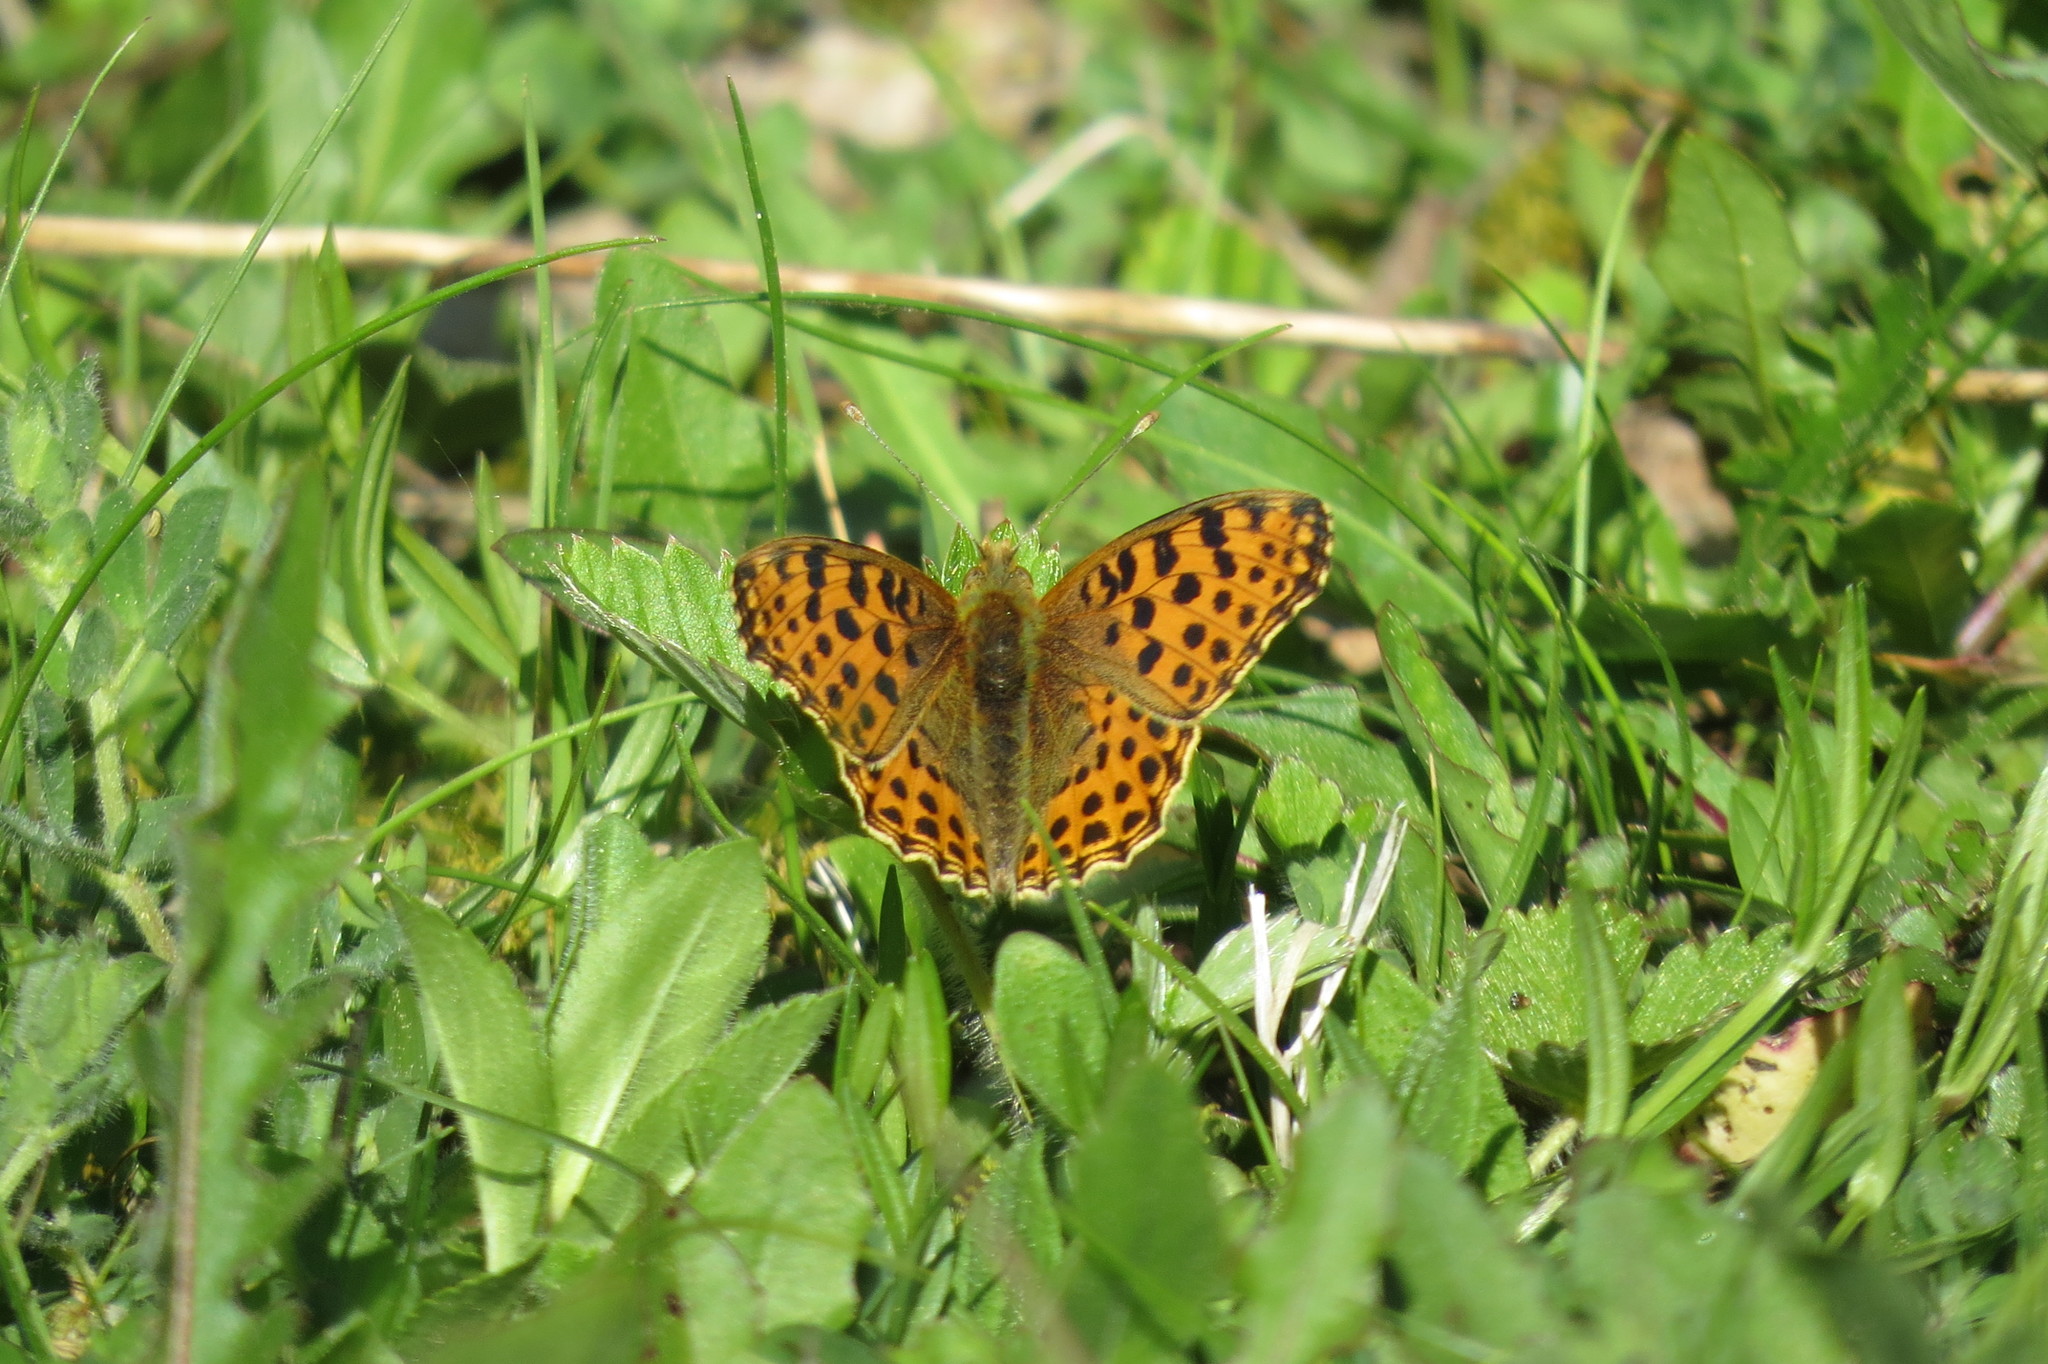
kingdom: Animalia
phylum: Arthropoda
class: Insecta
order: Lepidoptera
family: Nymphalidae
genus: Issoria
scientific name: Issoria lathonia
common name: Queen of spain fritillary
